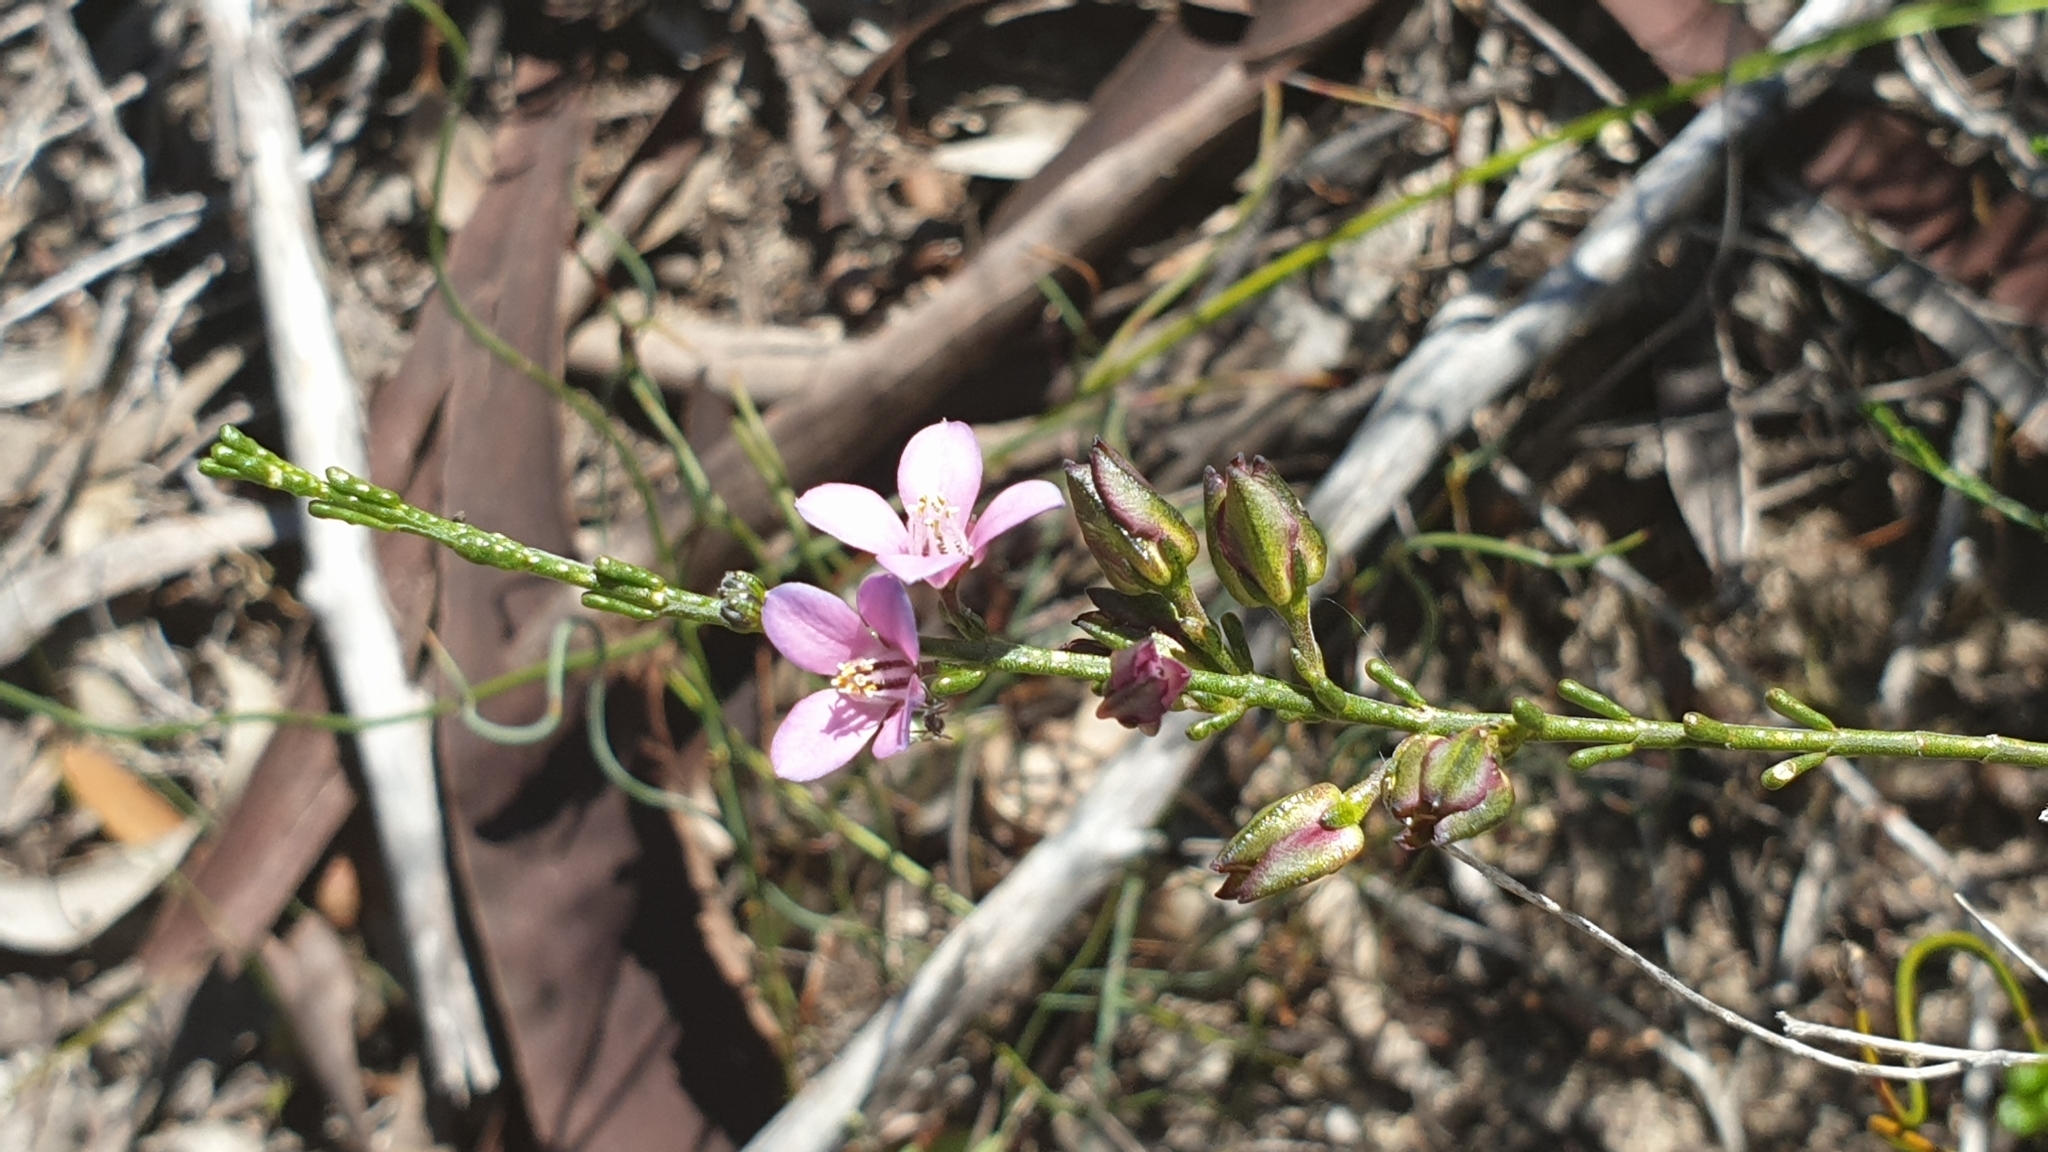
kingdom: Plantae
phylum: Tracheophyta
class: Magnoliopsida
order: Sapindales
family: Rutaceae
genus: Cyanothamnus
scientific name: Cyanothamnus coerulescens
